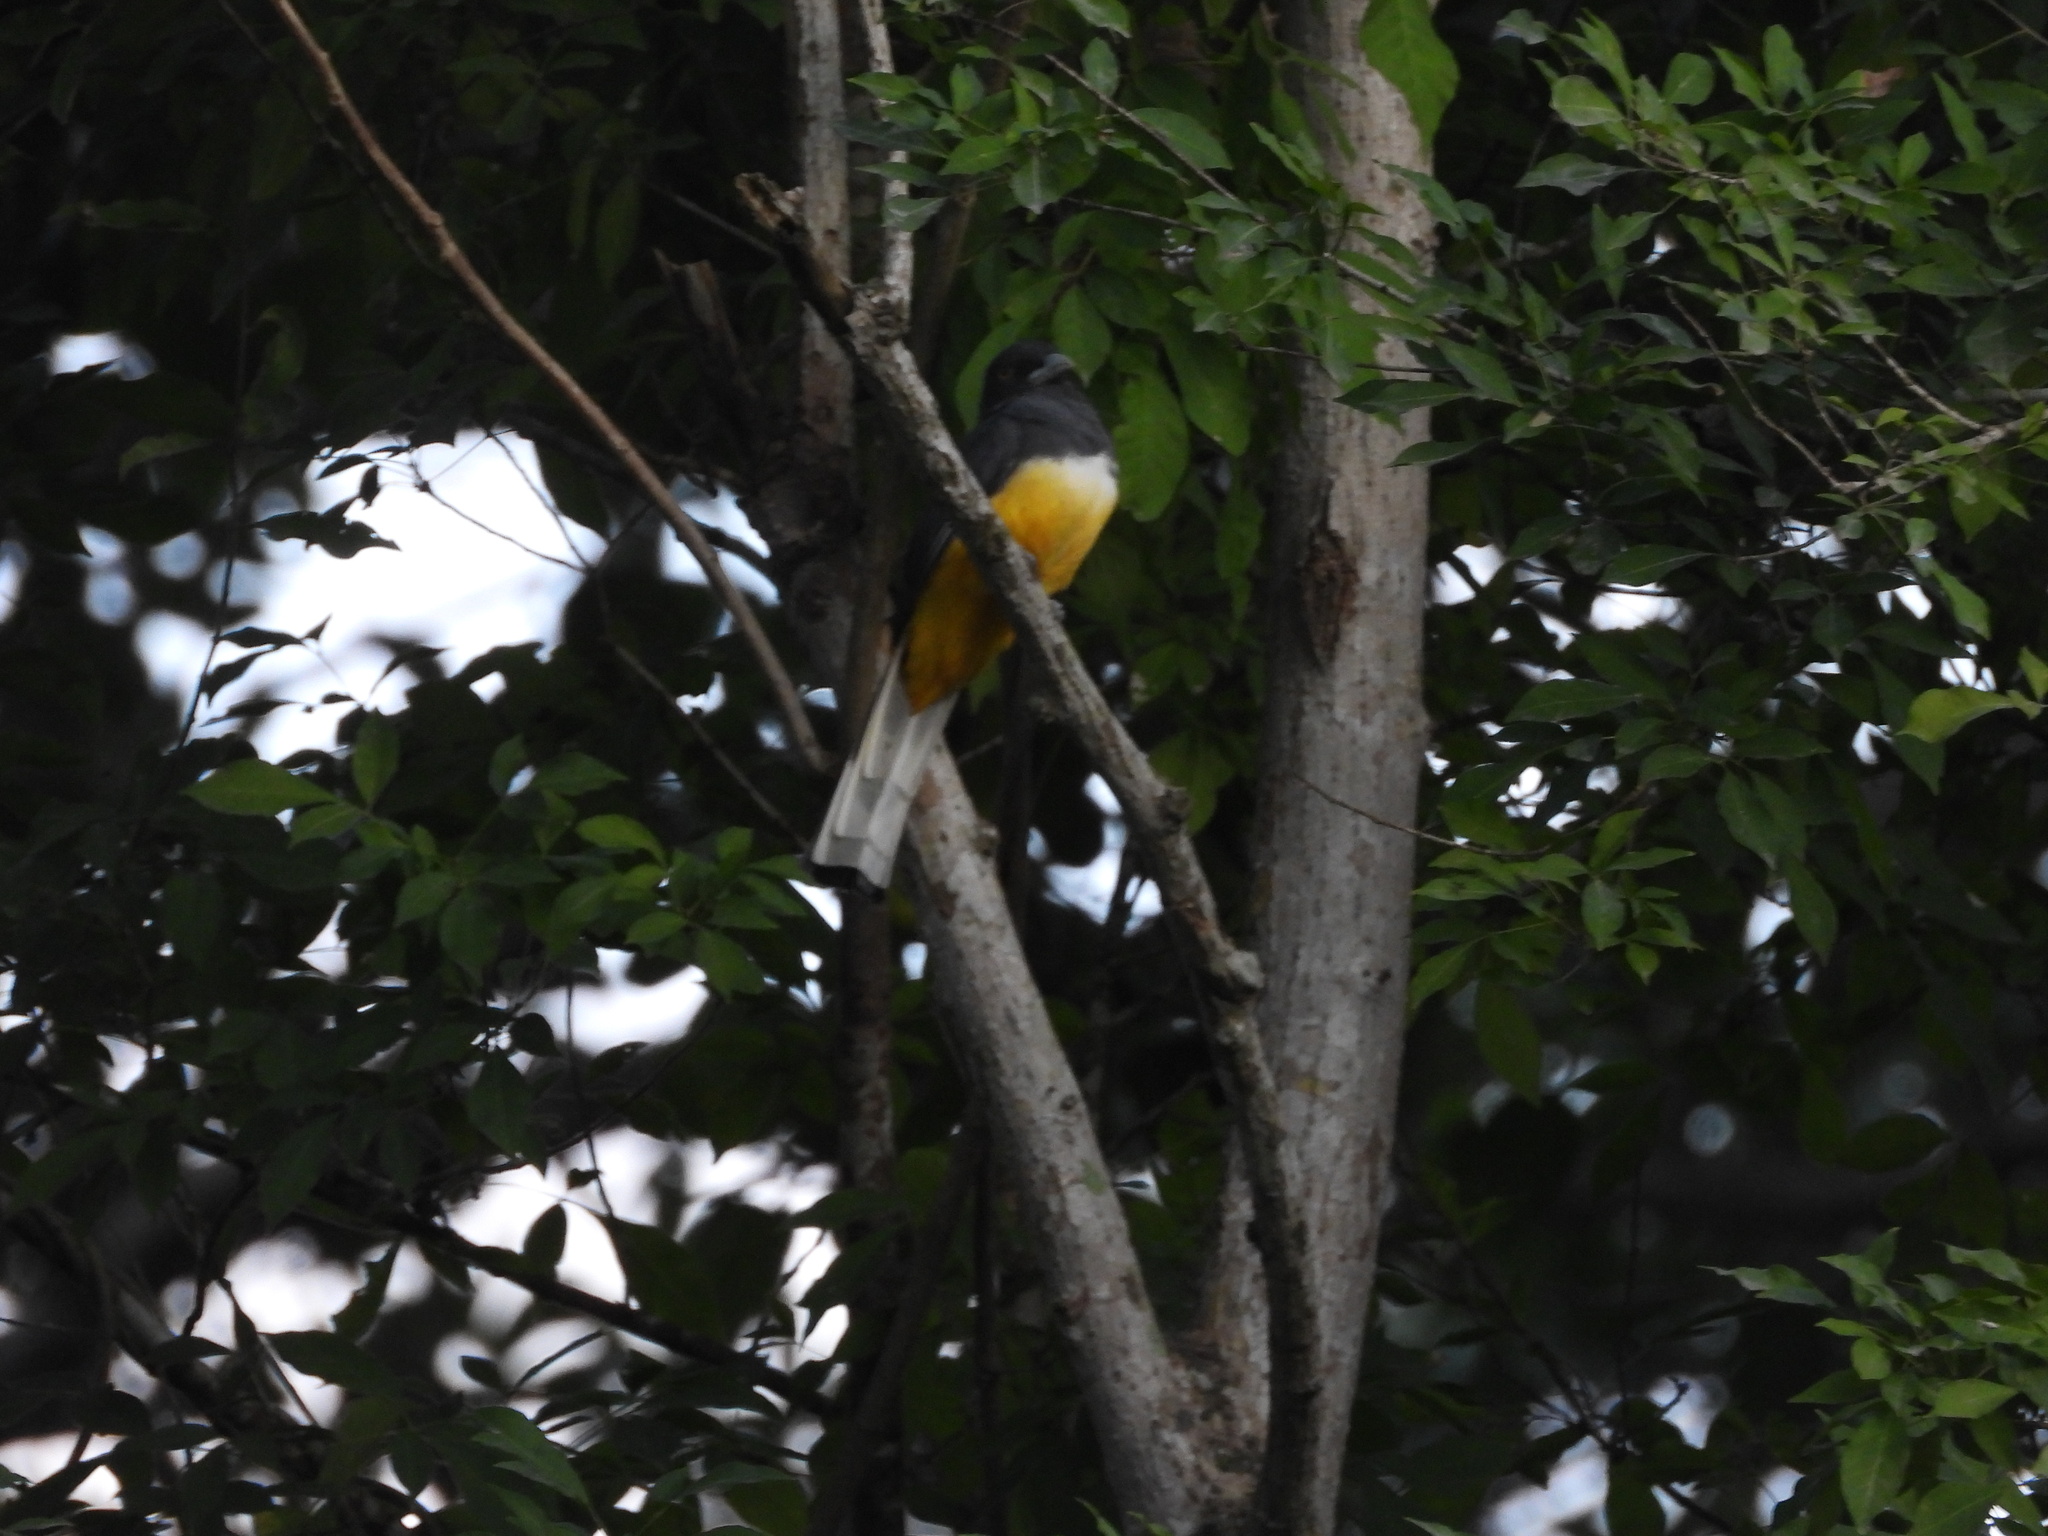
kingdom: Animalia
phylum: Chordata
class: Aves
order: Trogoniformes
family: Trogonidae
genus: Trogon
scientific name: Trogon citreolus
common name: Citreoline trogon
